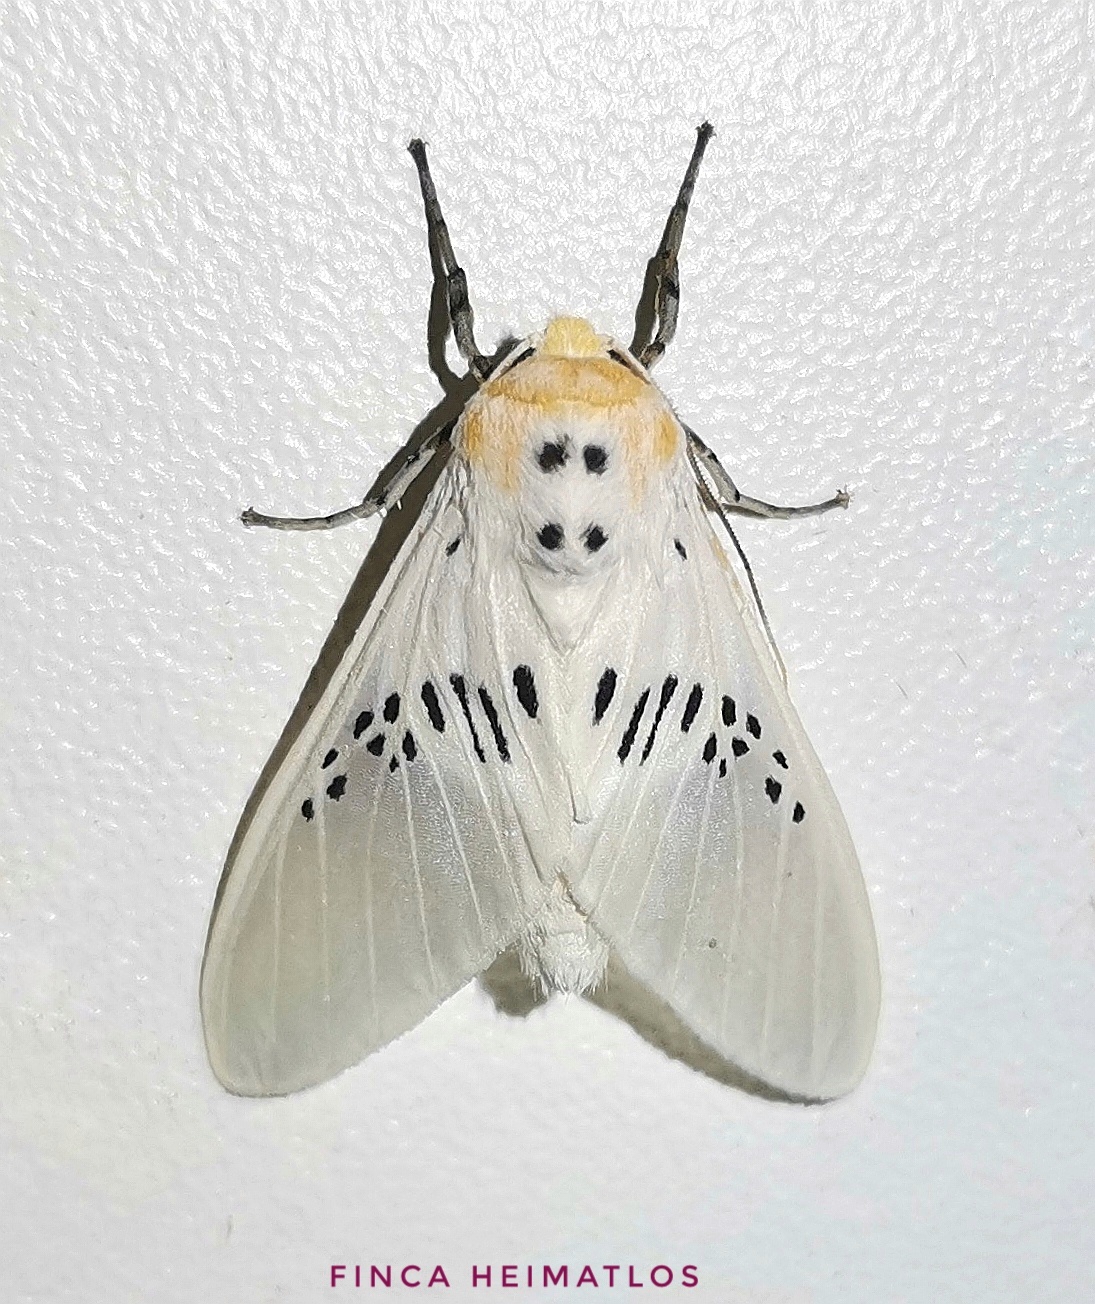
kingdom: Animalia
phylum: Arthropoda
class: Insecta
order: Lepidoptera
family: Erebidae
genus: Idalus
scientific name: Idalus fasciipuncta
